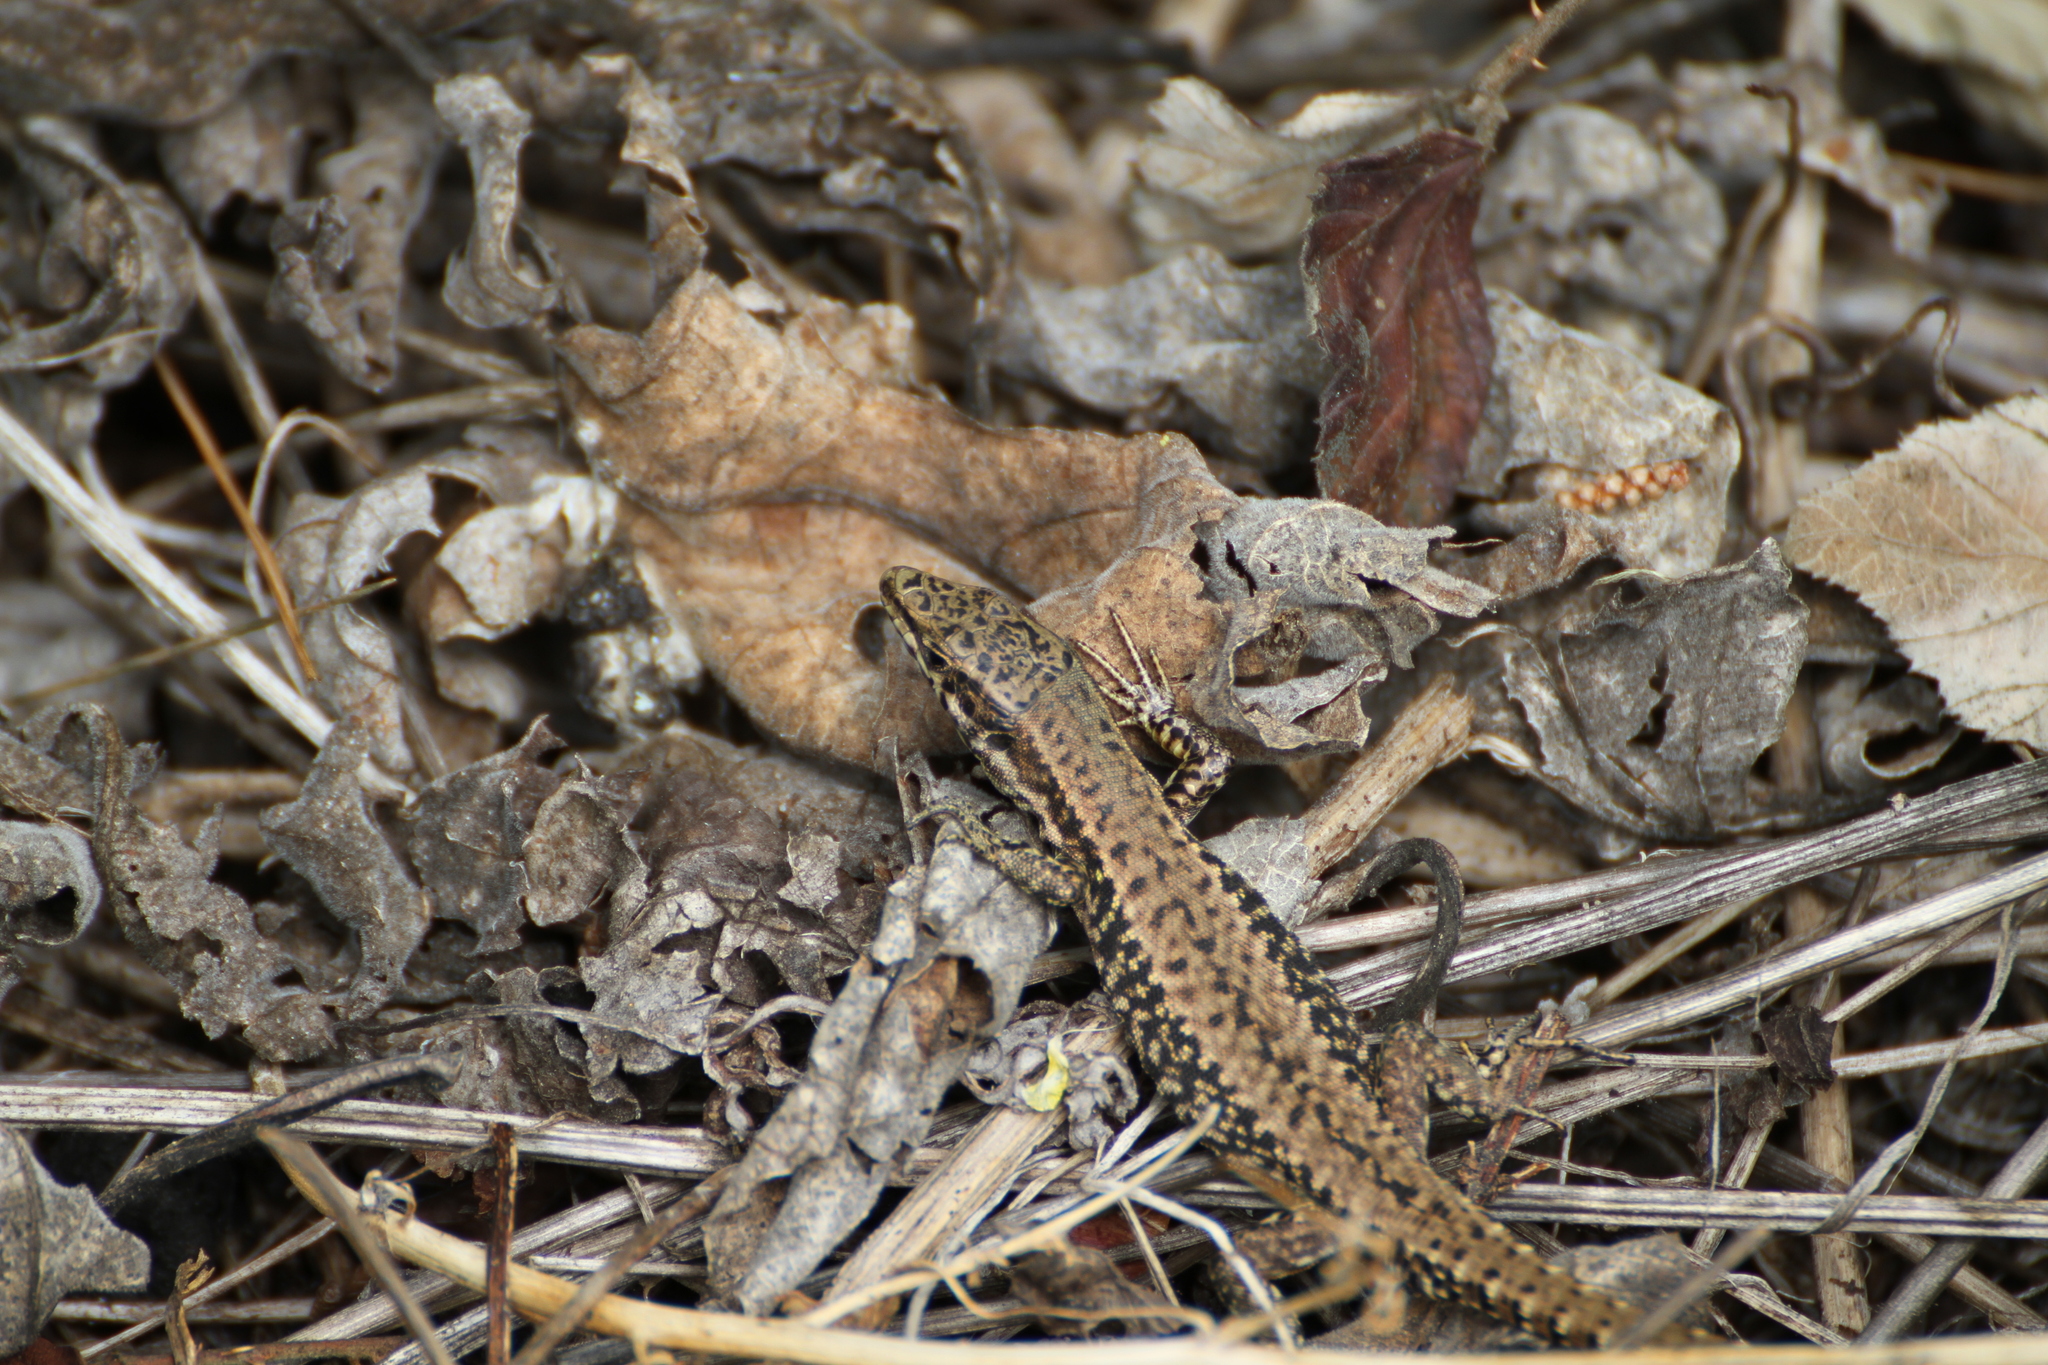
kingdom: Animalia
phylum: Chordata
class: Squamata
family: Lacertidae
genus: Podarcis
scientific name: Podarcis muralis
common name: Common wall lizard
